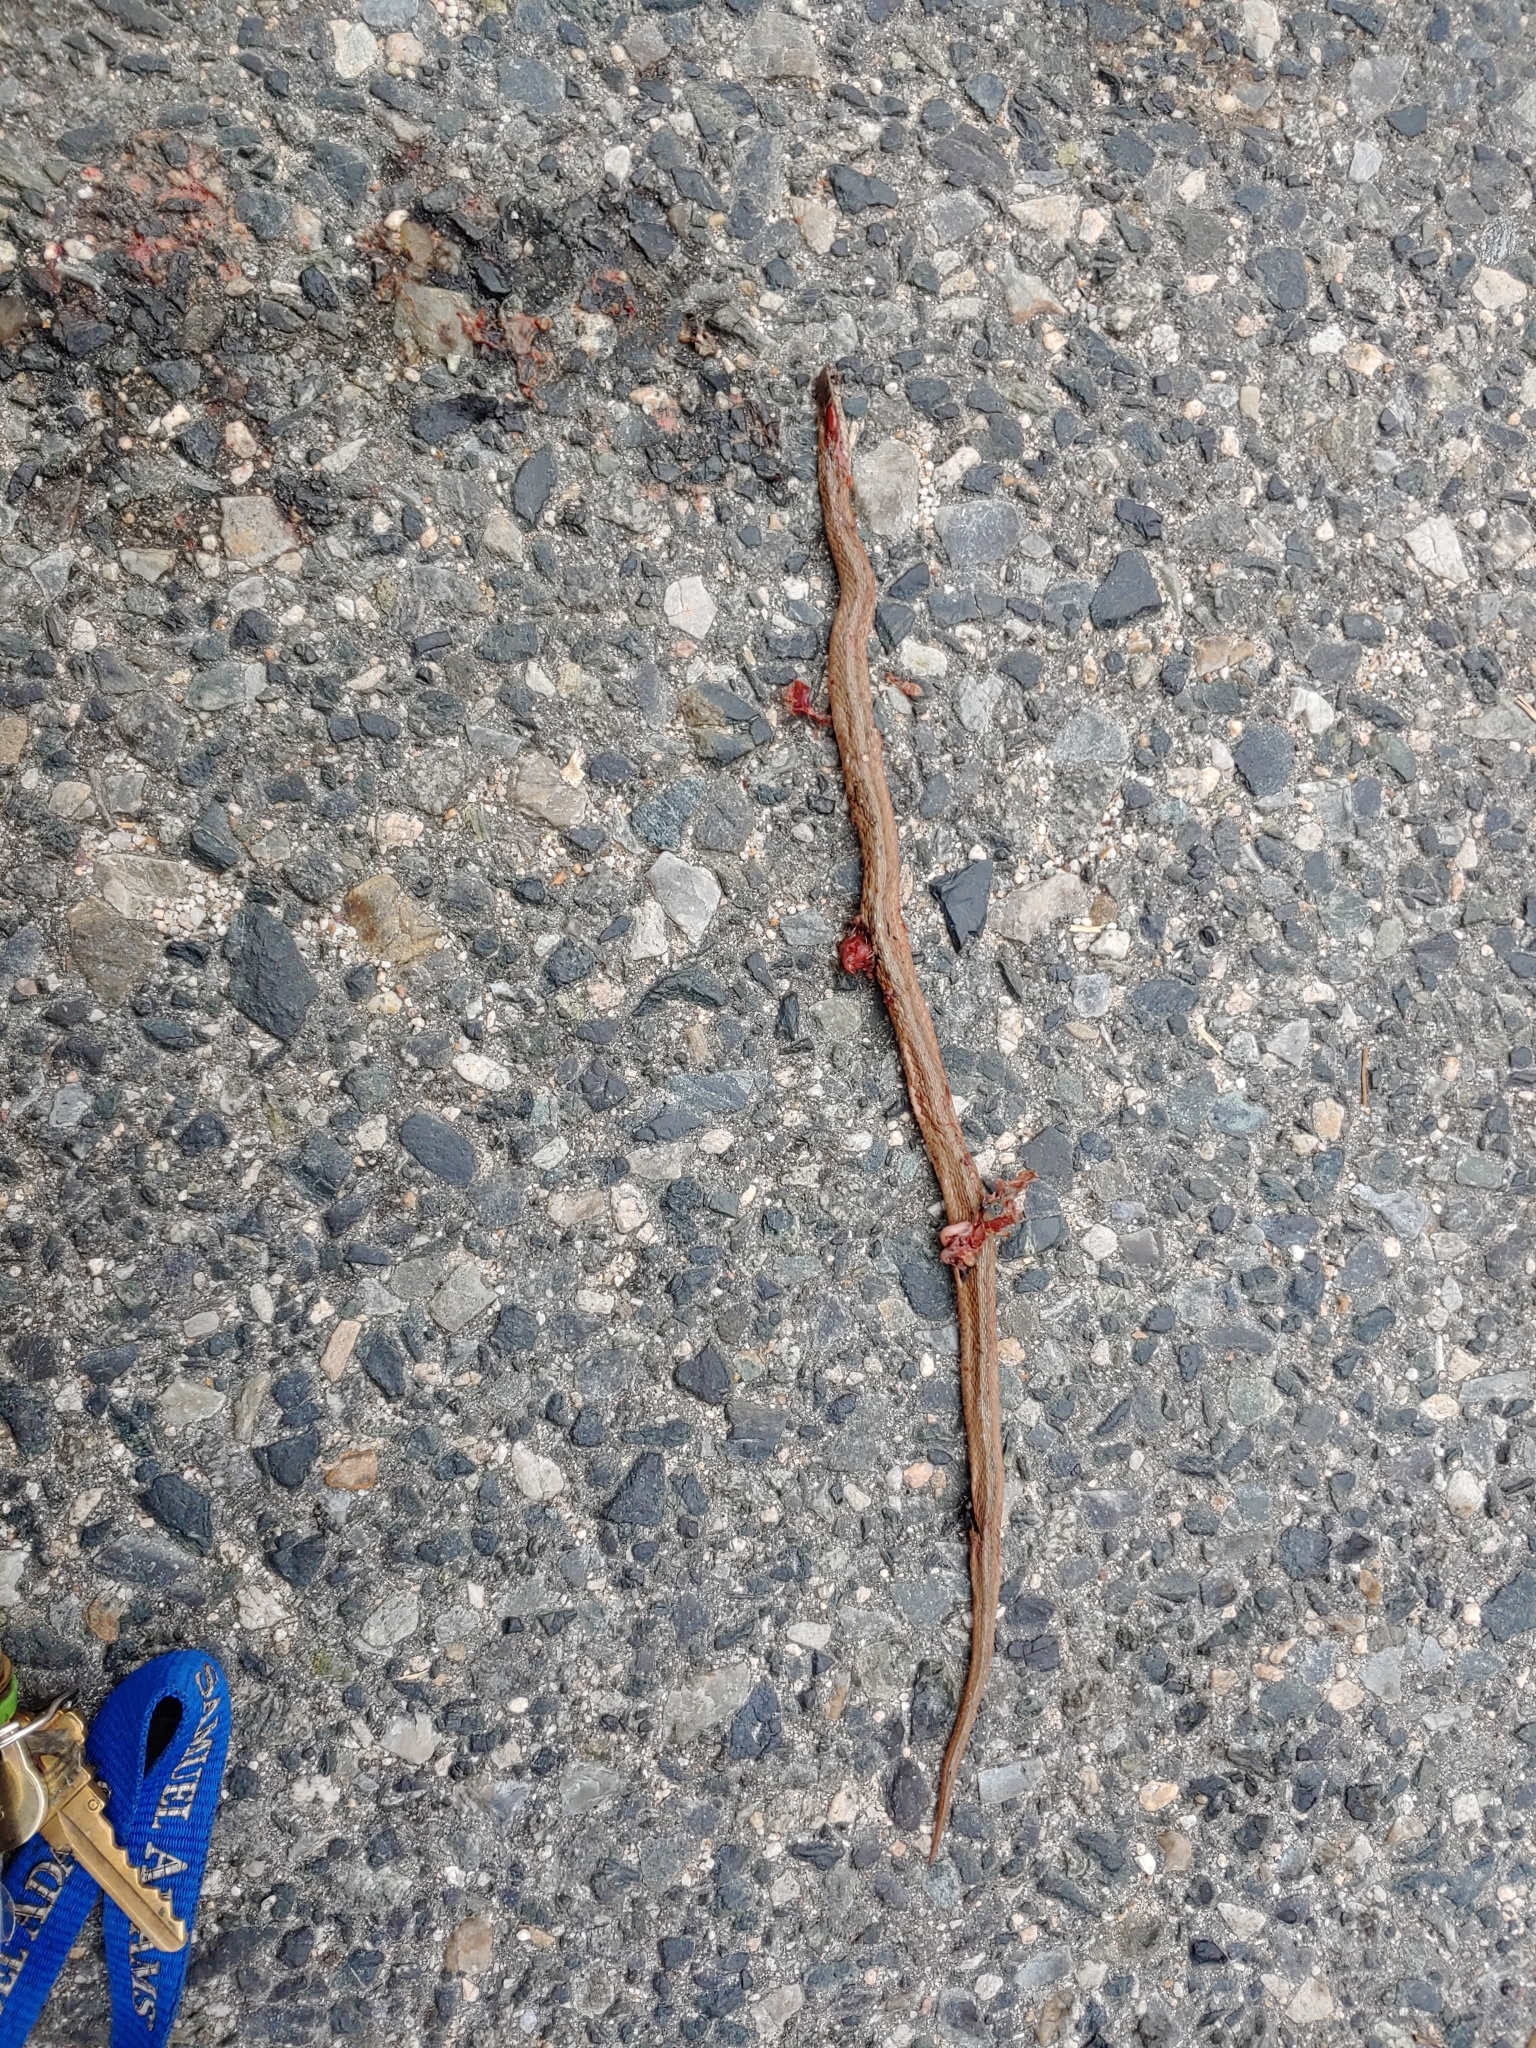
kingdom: Animalia
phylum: Chordata
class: Squamata
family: Colubridae
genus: Storeria
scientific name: Storeria dekayi
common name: (dekay’s) brown snake
